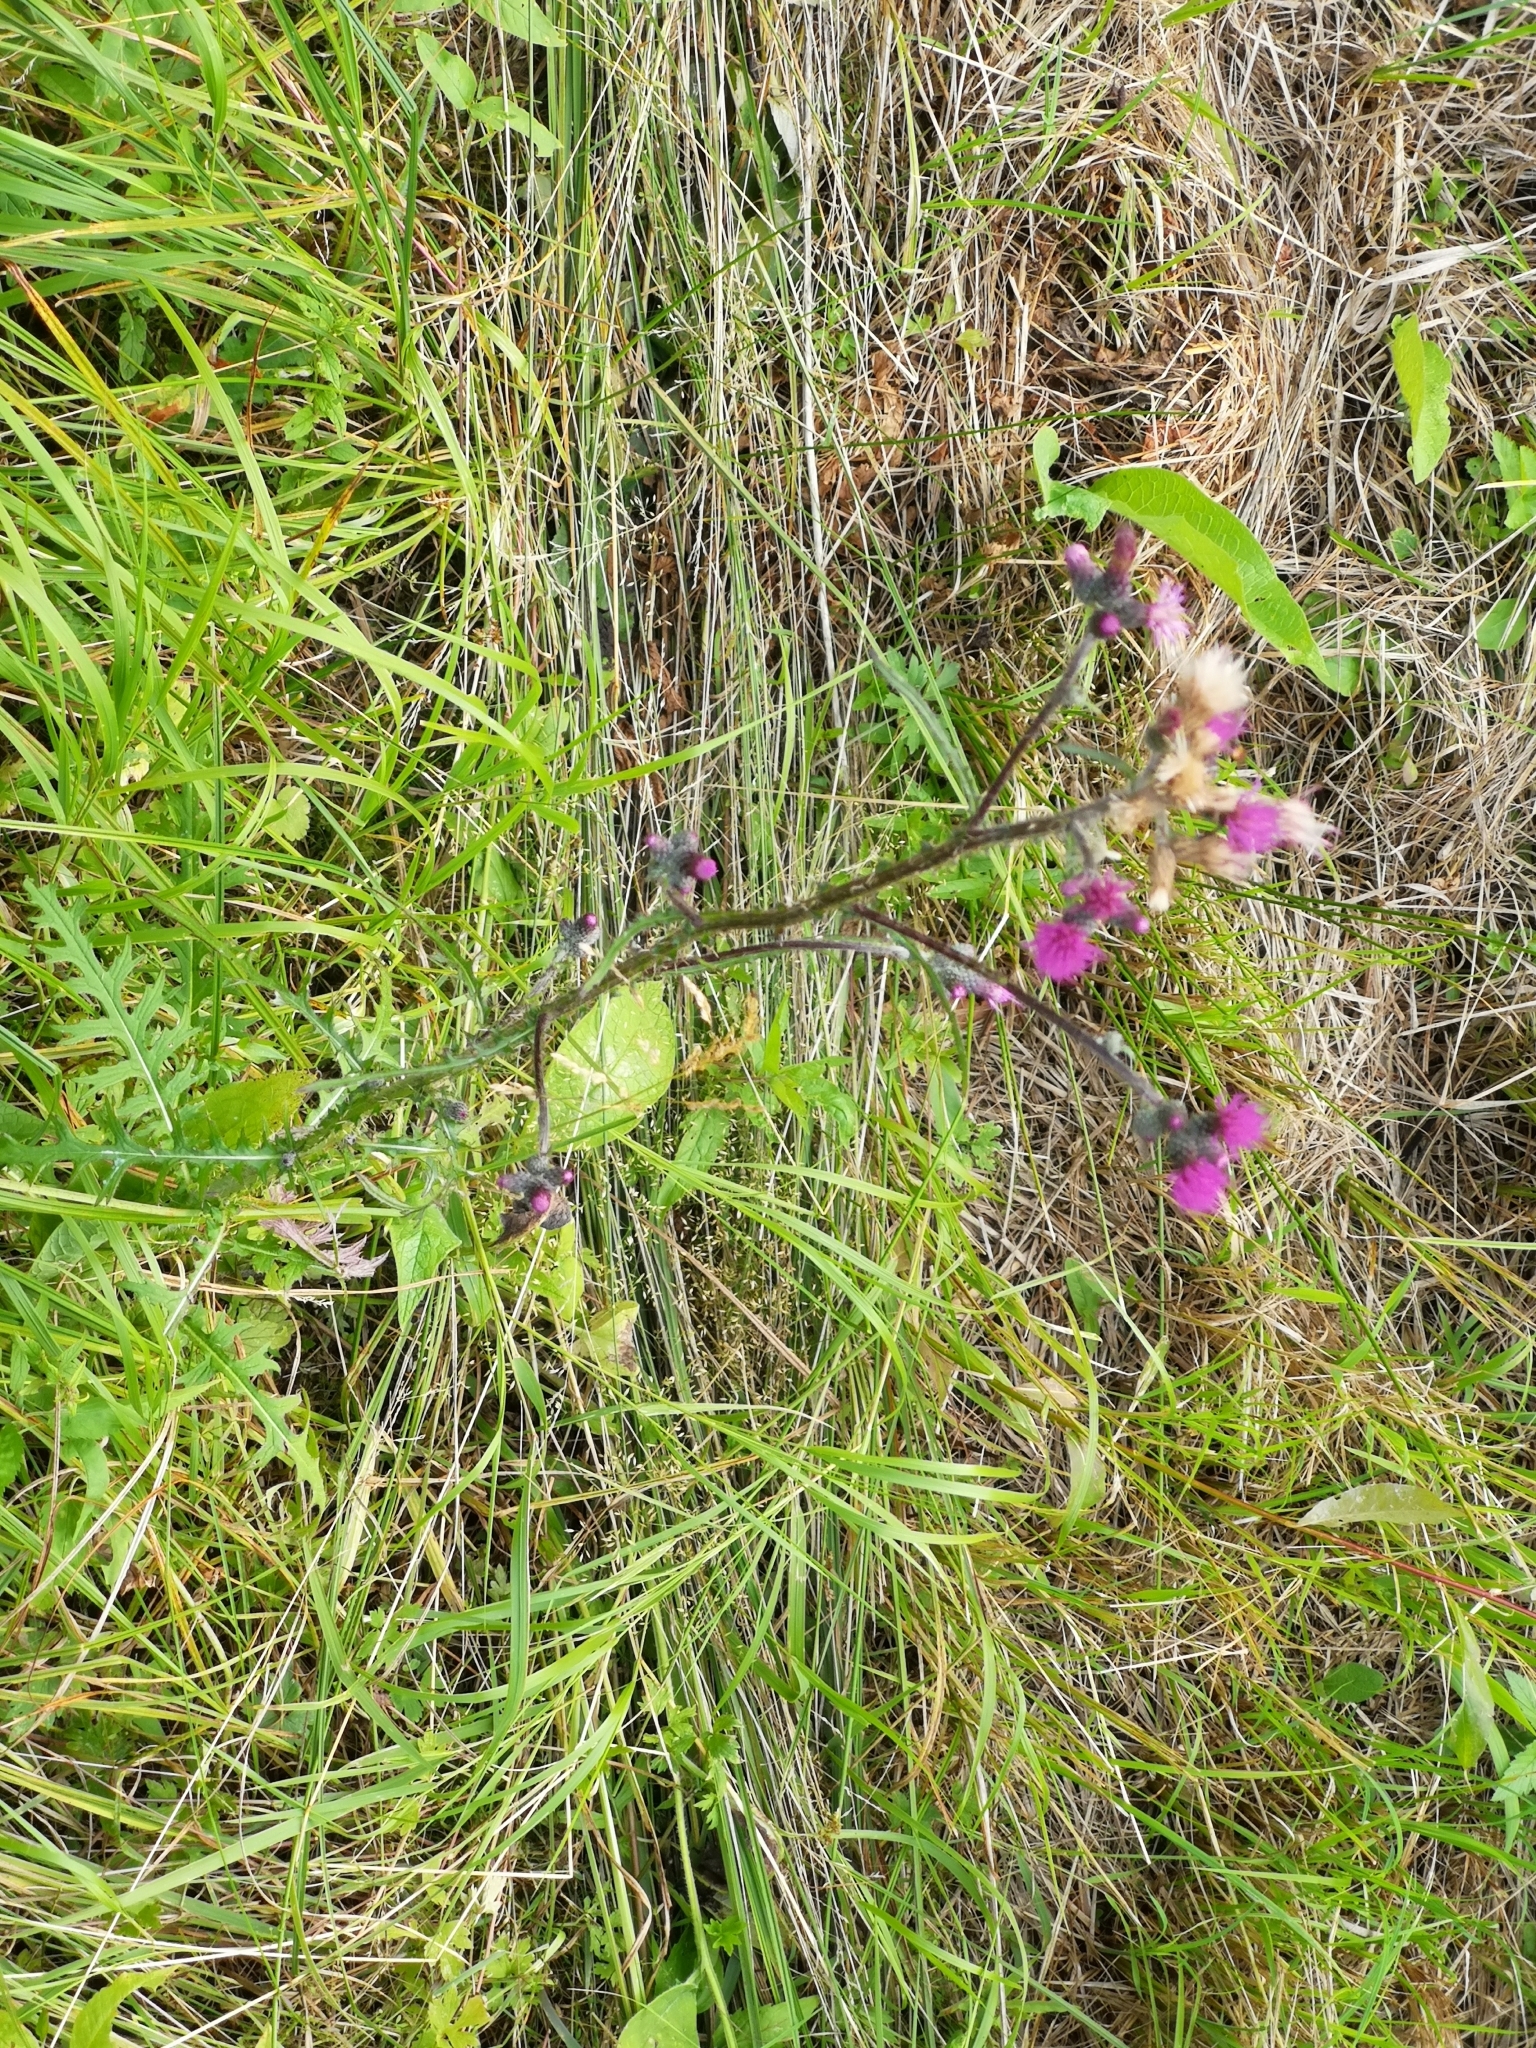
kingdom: Plantae
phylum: Tracheophyta
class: Magnoliopsida
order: Asterales
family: Asteraceae
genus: Cirsium
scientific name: Cirsium palustre
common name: Marsh thistle
